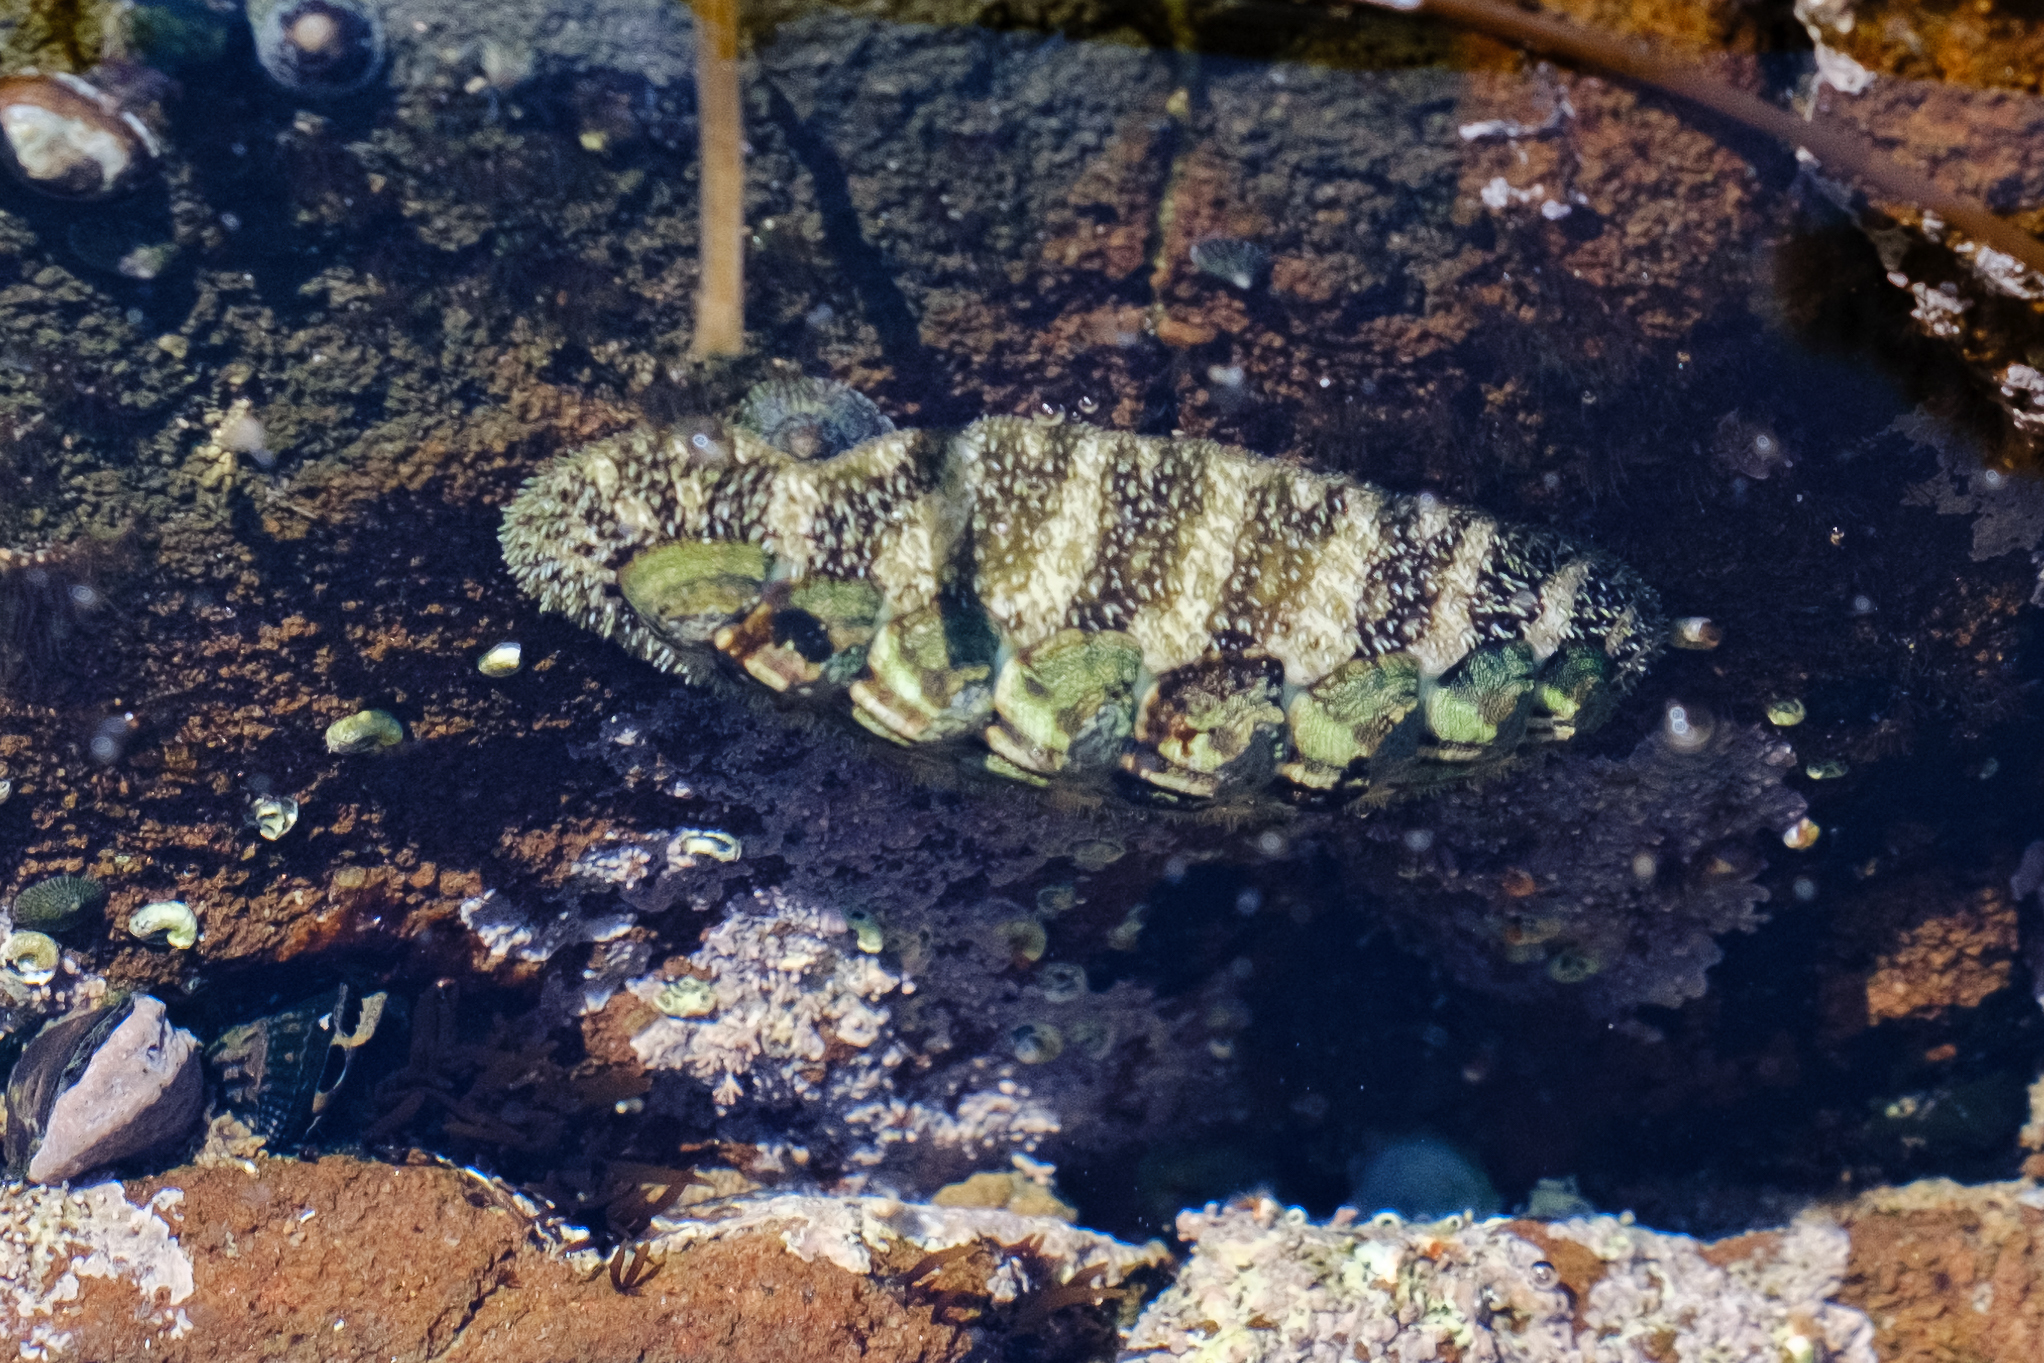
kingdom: Animalia
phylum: Mollusca
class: Polyplacophora
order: Chitonida
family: Tonicellidae
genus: Nuttallina
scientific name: Nuttallina californica
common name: California nuttall chiton
